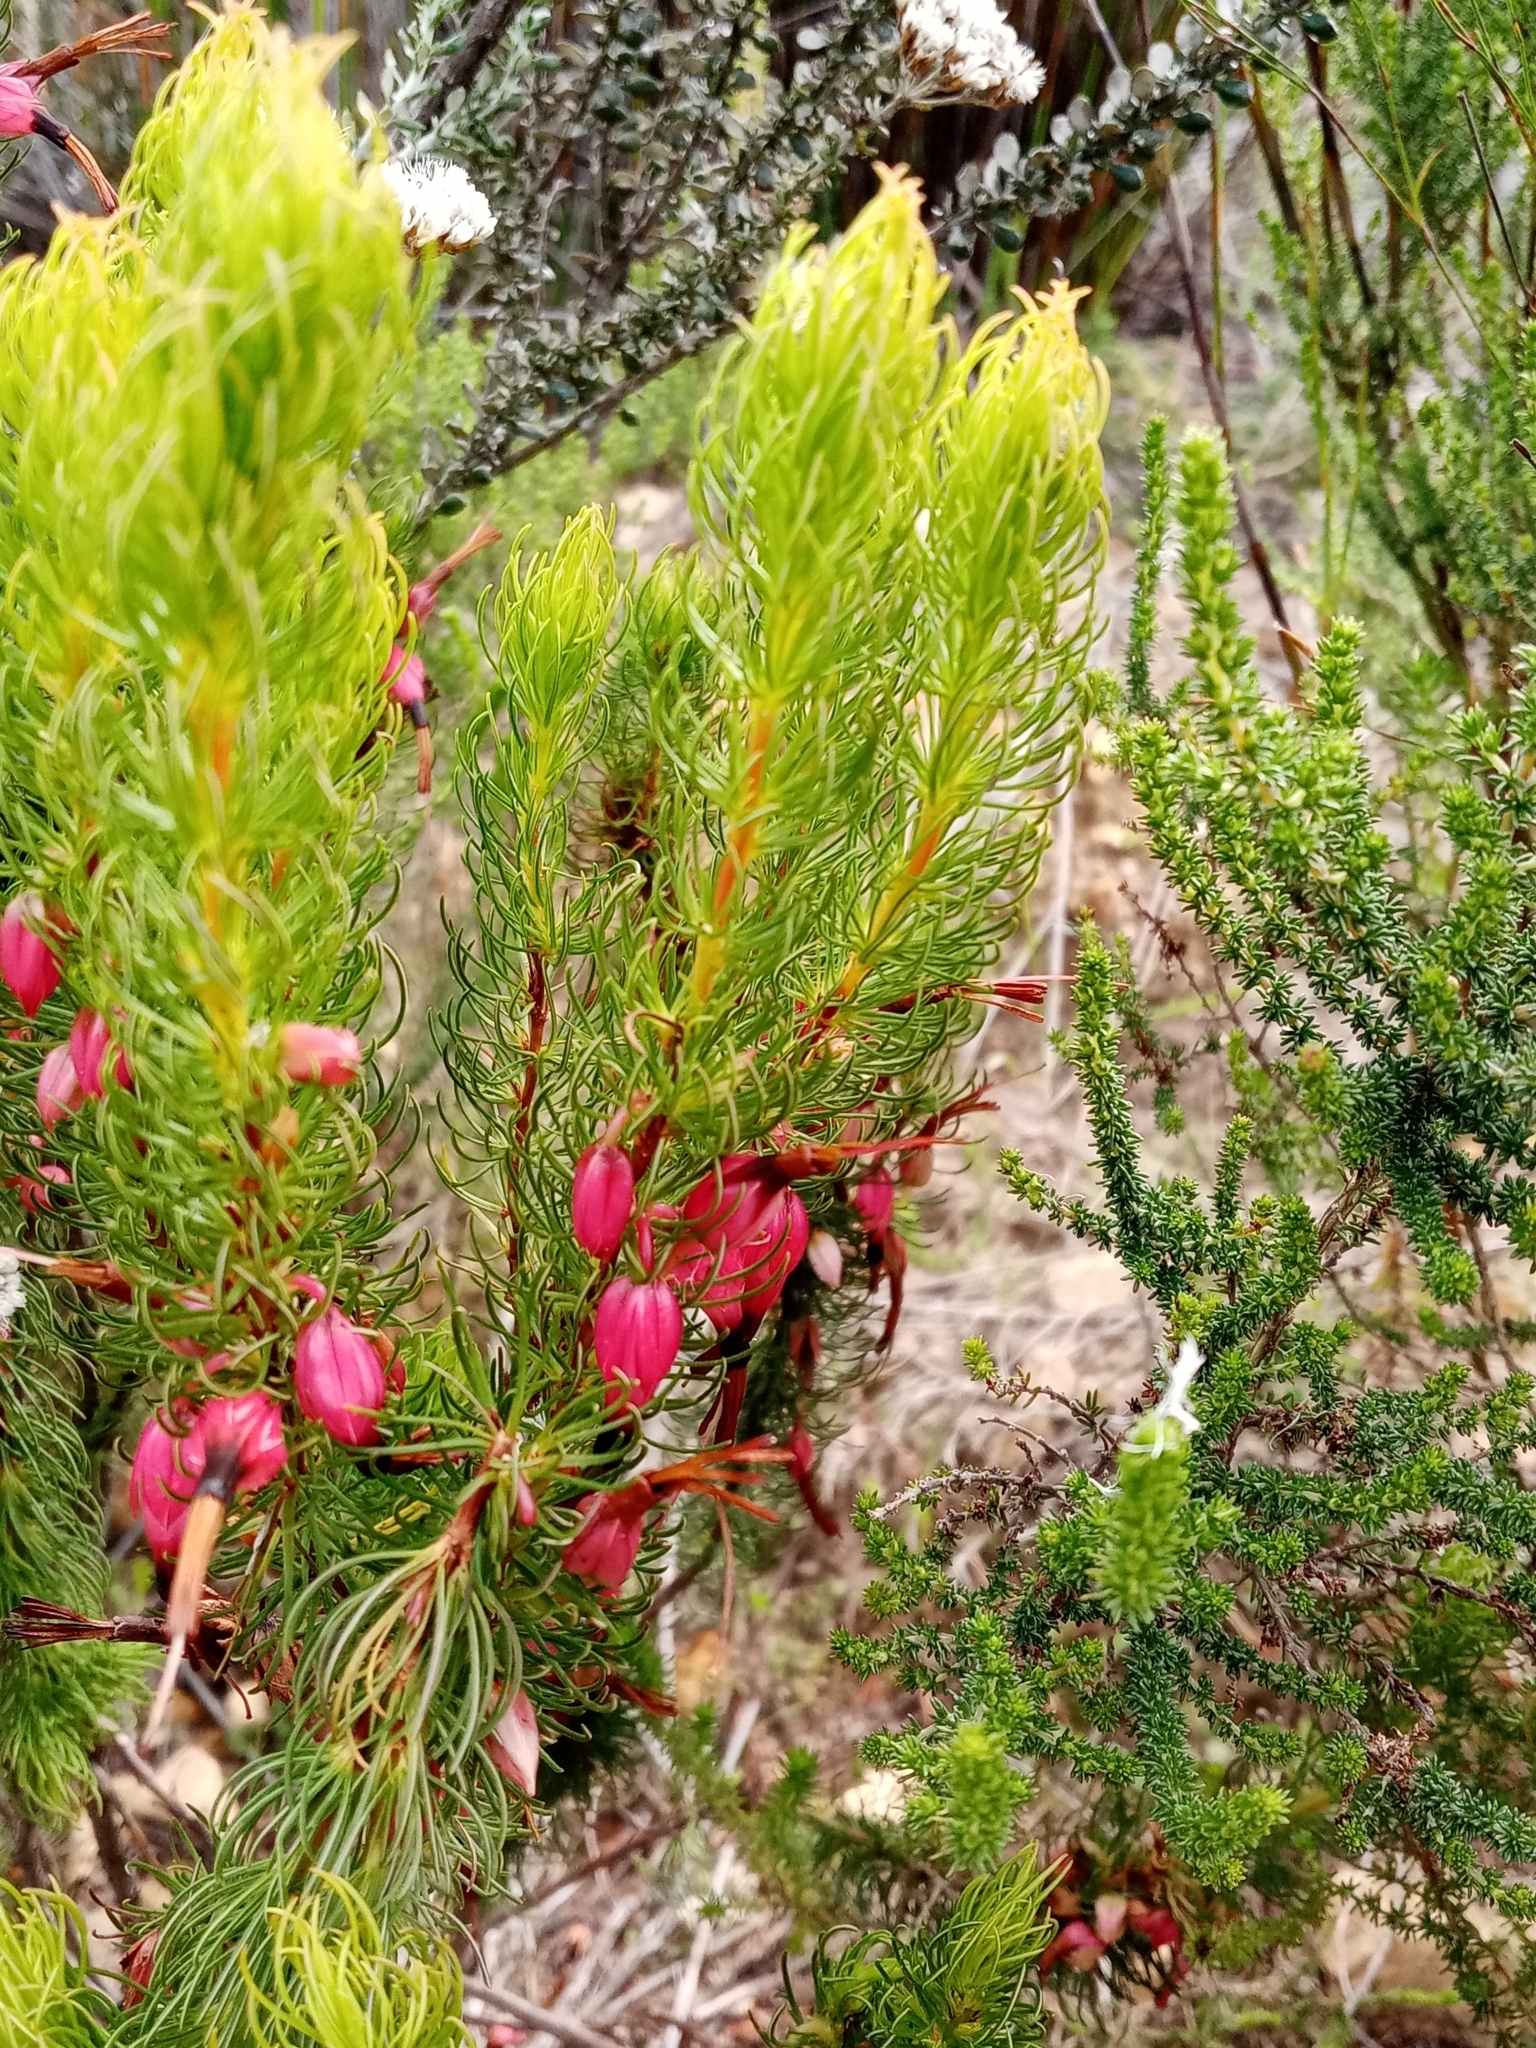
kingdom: Plantae
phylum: Tracheophyta
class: Magnoliopsida
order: Ericales
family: Ericaceae
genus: Erica
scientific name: Erica plukenetii
